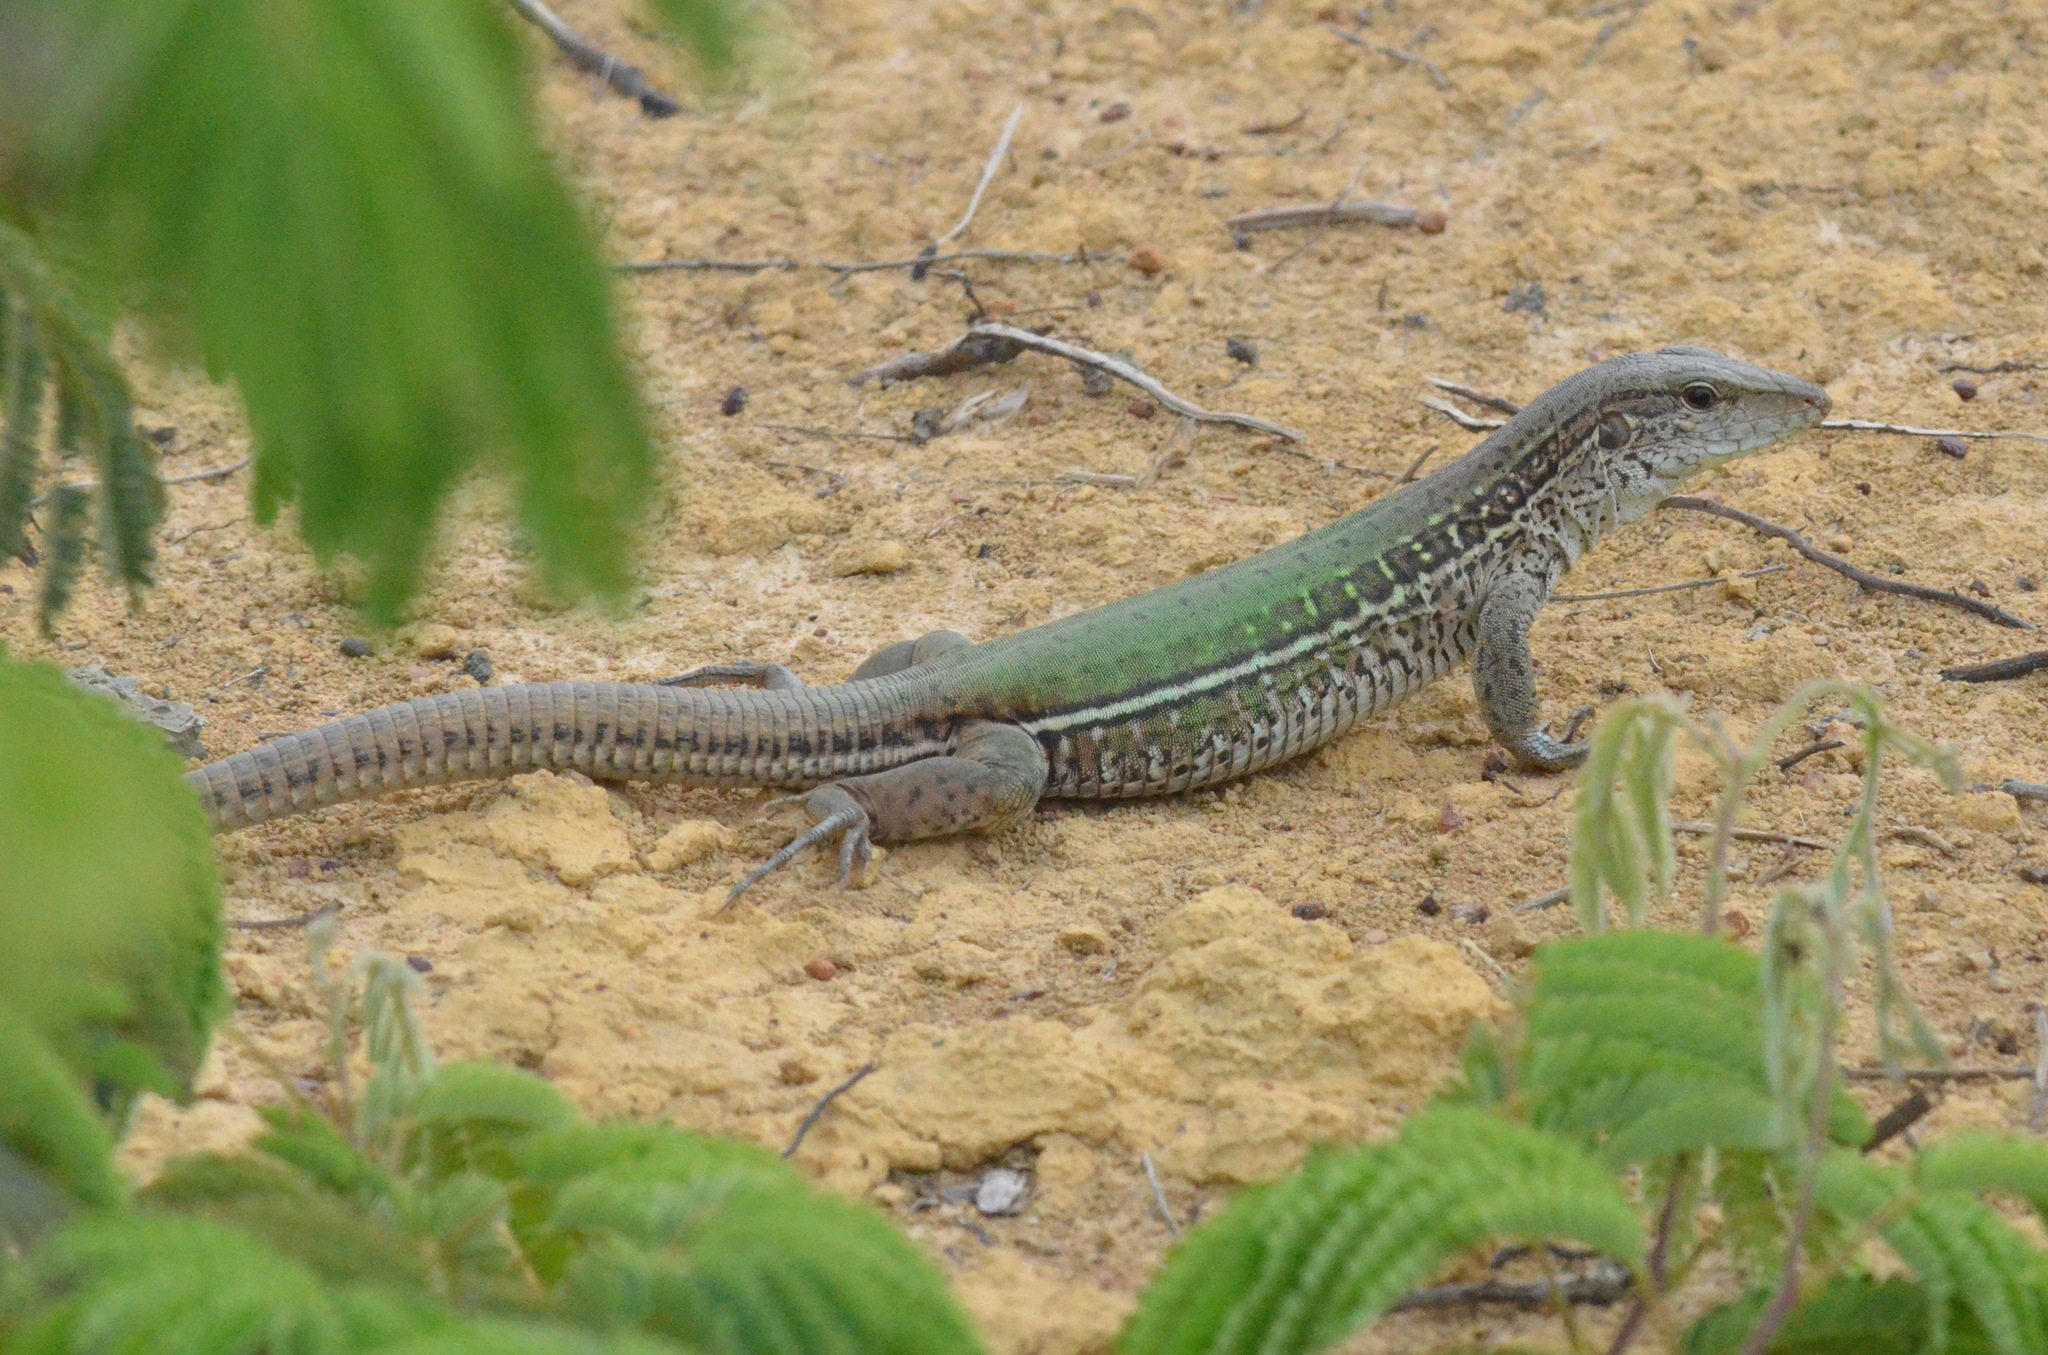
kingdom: Animalia
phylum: Chordata
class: Squamata
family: Teiidae
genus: Ameiva
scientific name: Ameiva ameiva
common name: Giant ameiva
